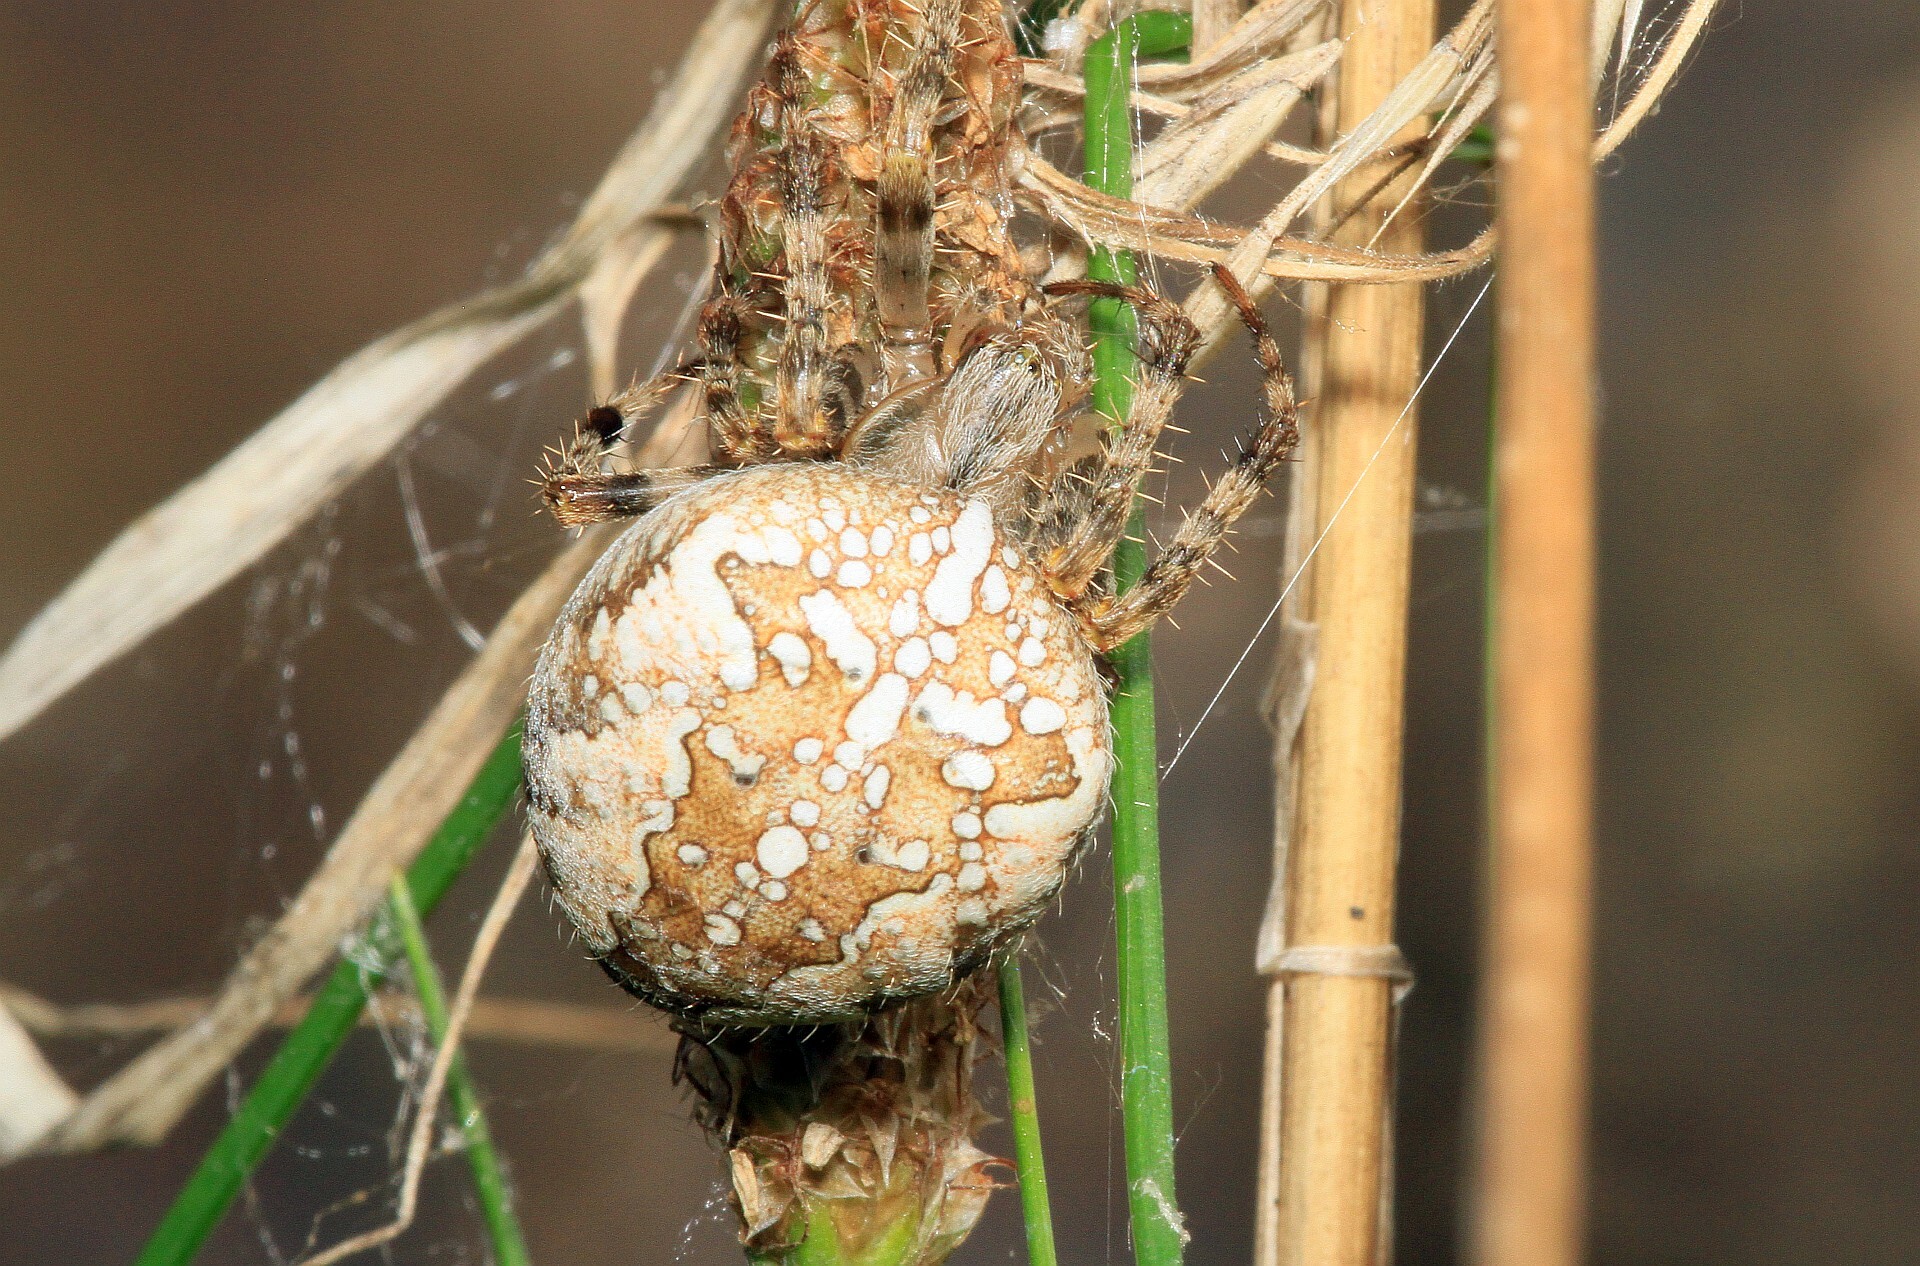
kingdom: Animalia
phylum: Arthropoda
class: Arachnida
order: Araneae
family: Araneidae
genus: Araneus
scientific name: Araneus diadematus
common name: Cross orbweaver
